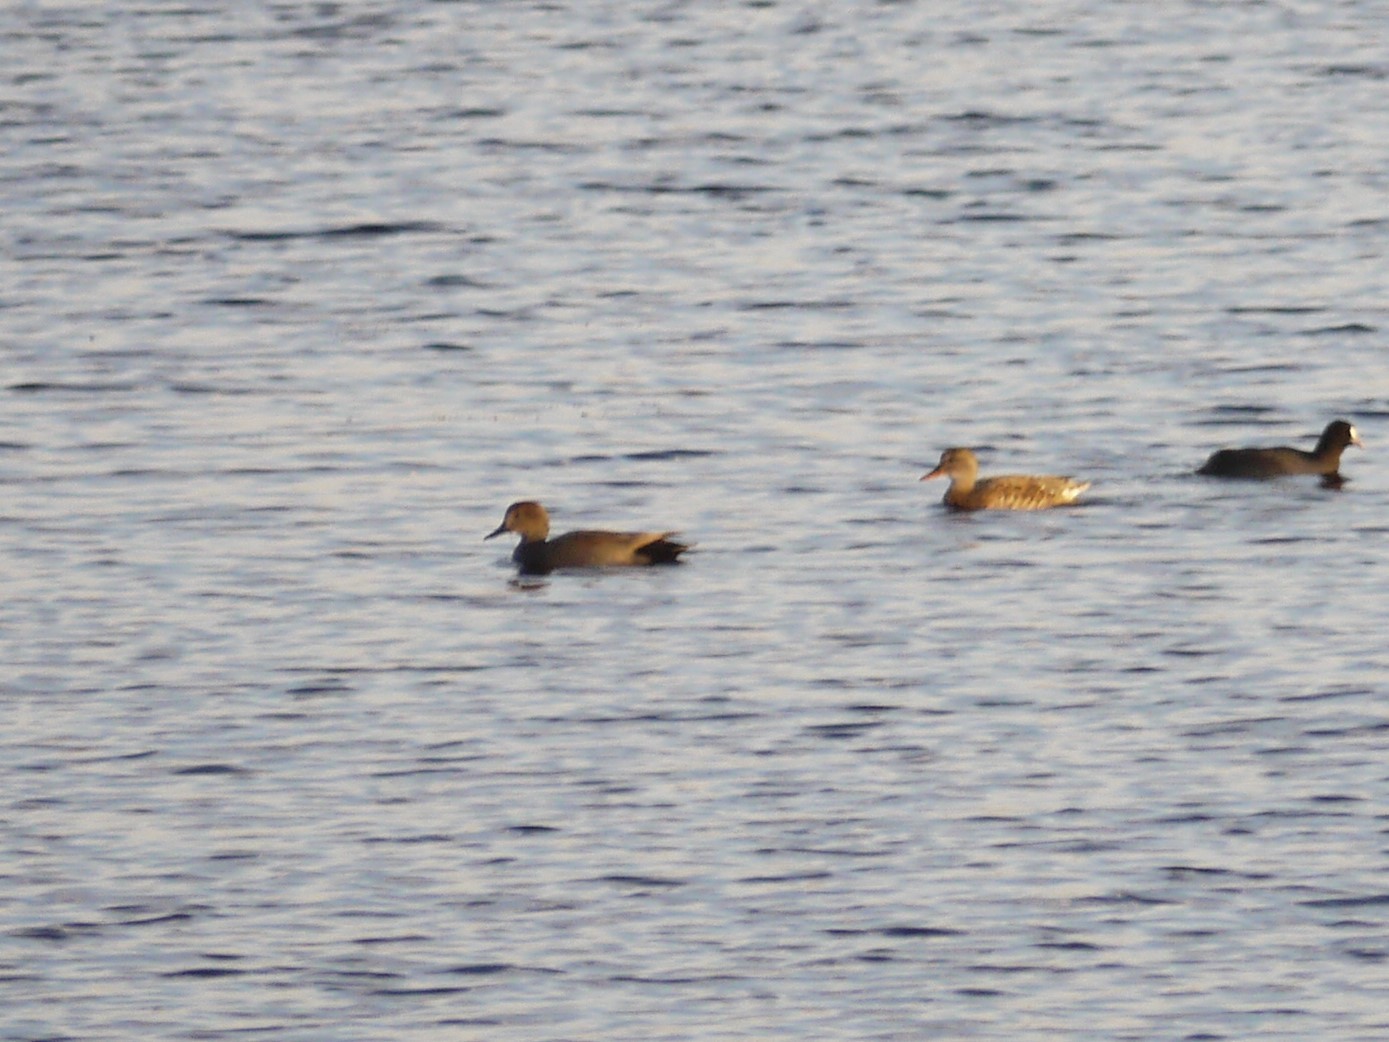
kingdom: Animalia
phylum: Chordata
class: Aves
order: Anseriformes
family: Anatidae
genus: Mareca
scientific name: Mareca strepera
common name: Gadwall
